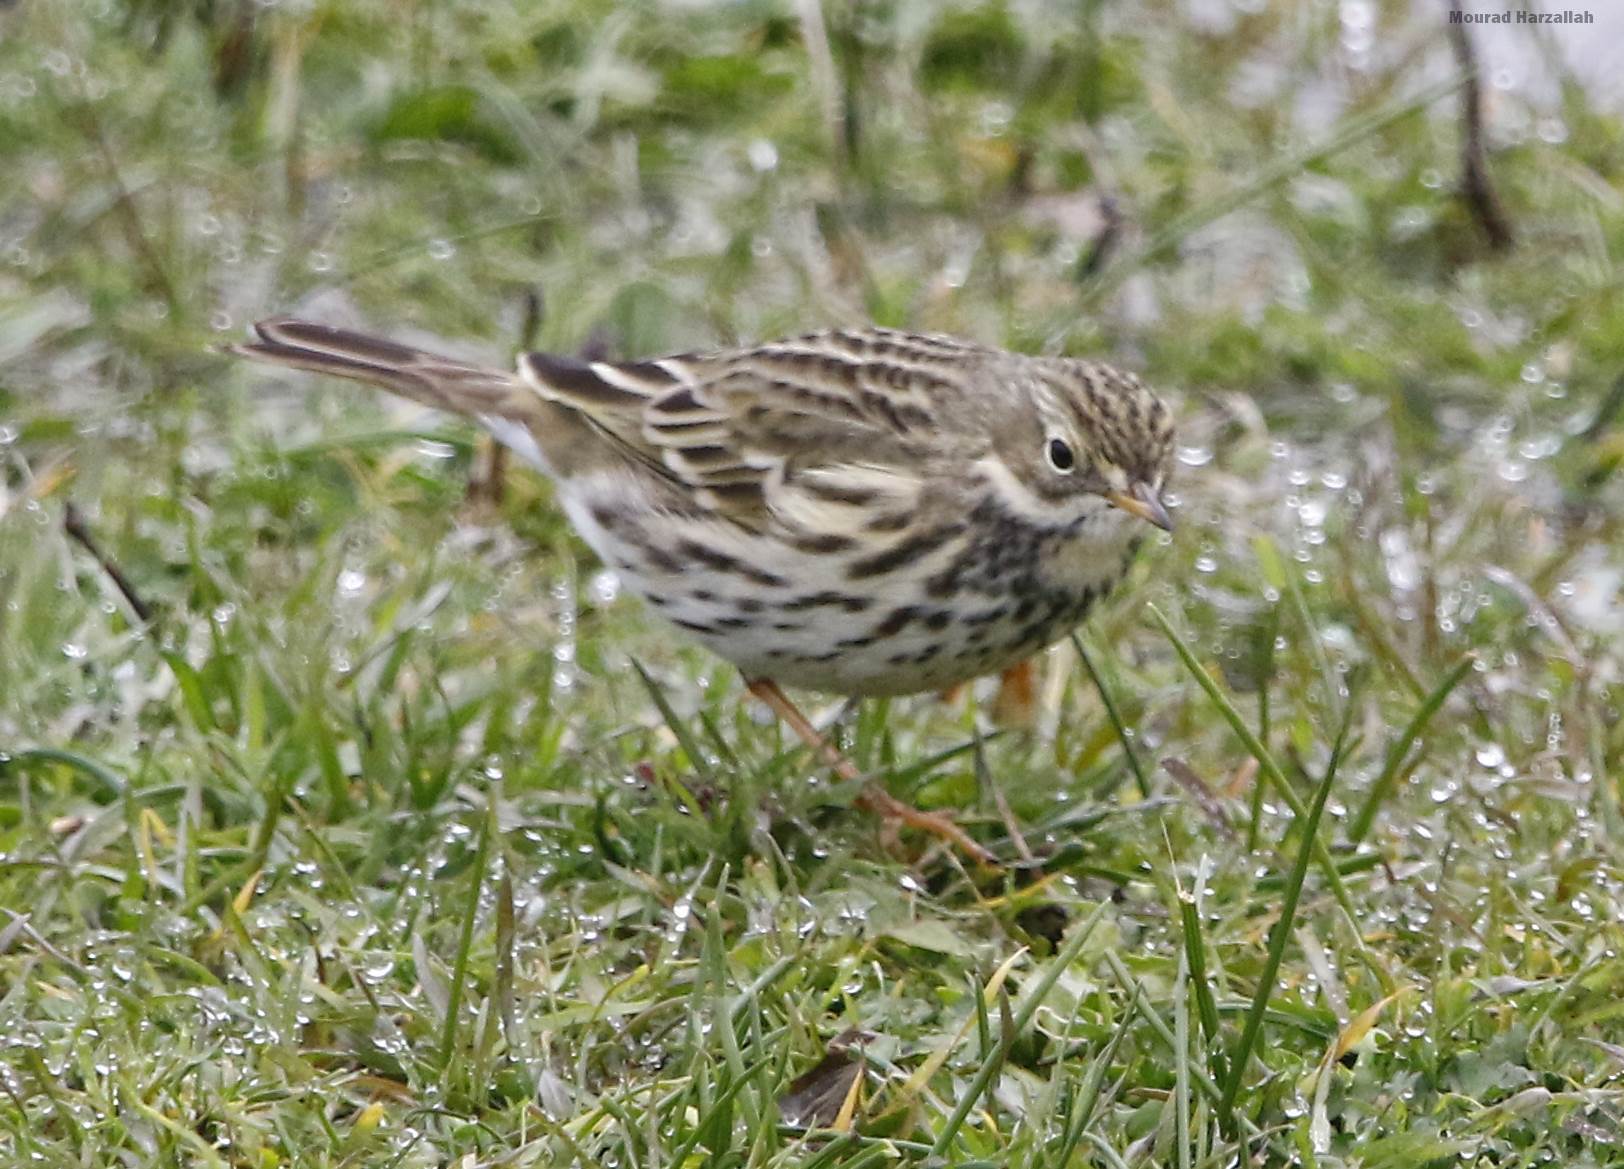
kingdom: Animalia
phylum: Chordata
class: Aves
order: Passeriformes
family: Motacillidae
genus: Anthus
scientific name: Anthus pratensis
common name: Meadow pipit
